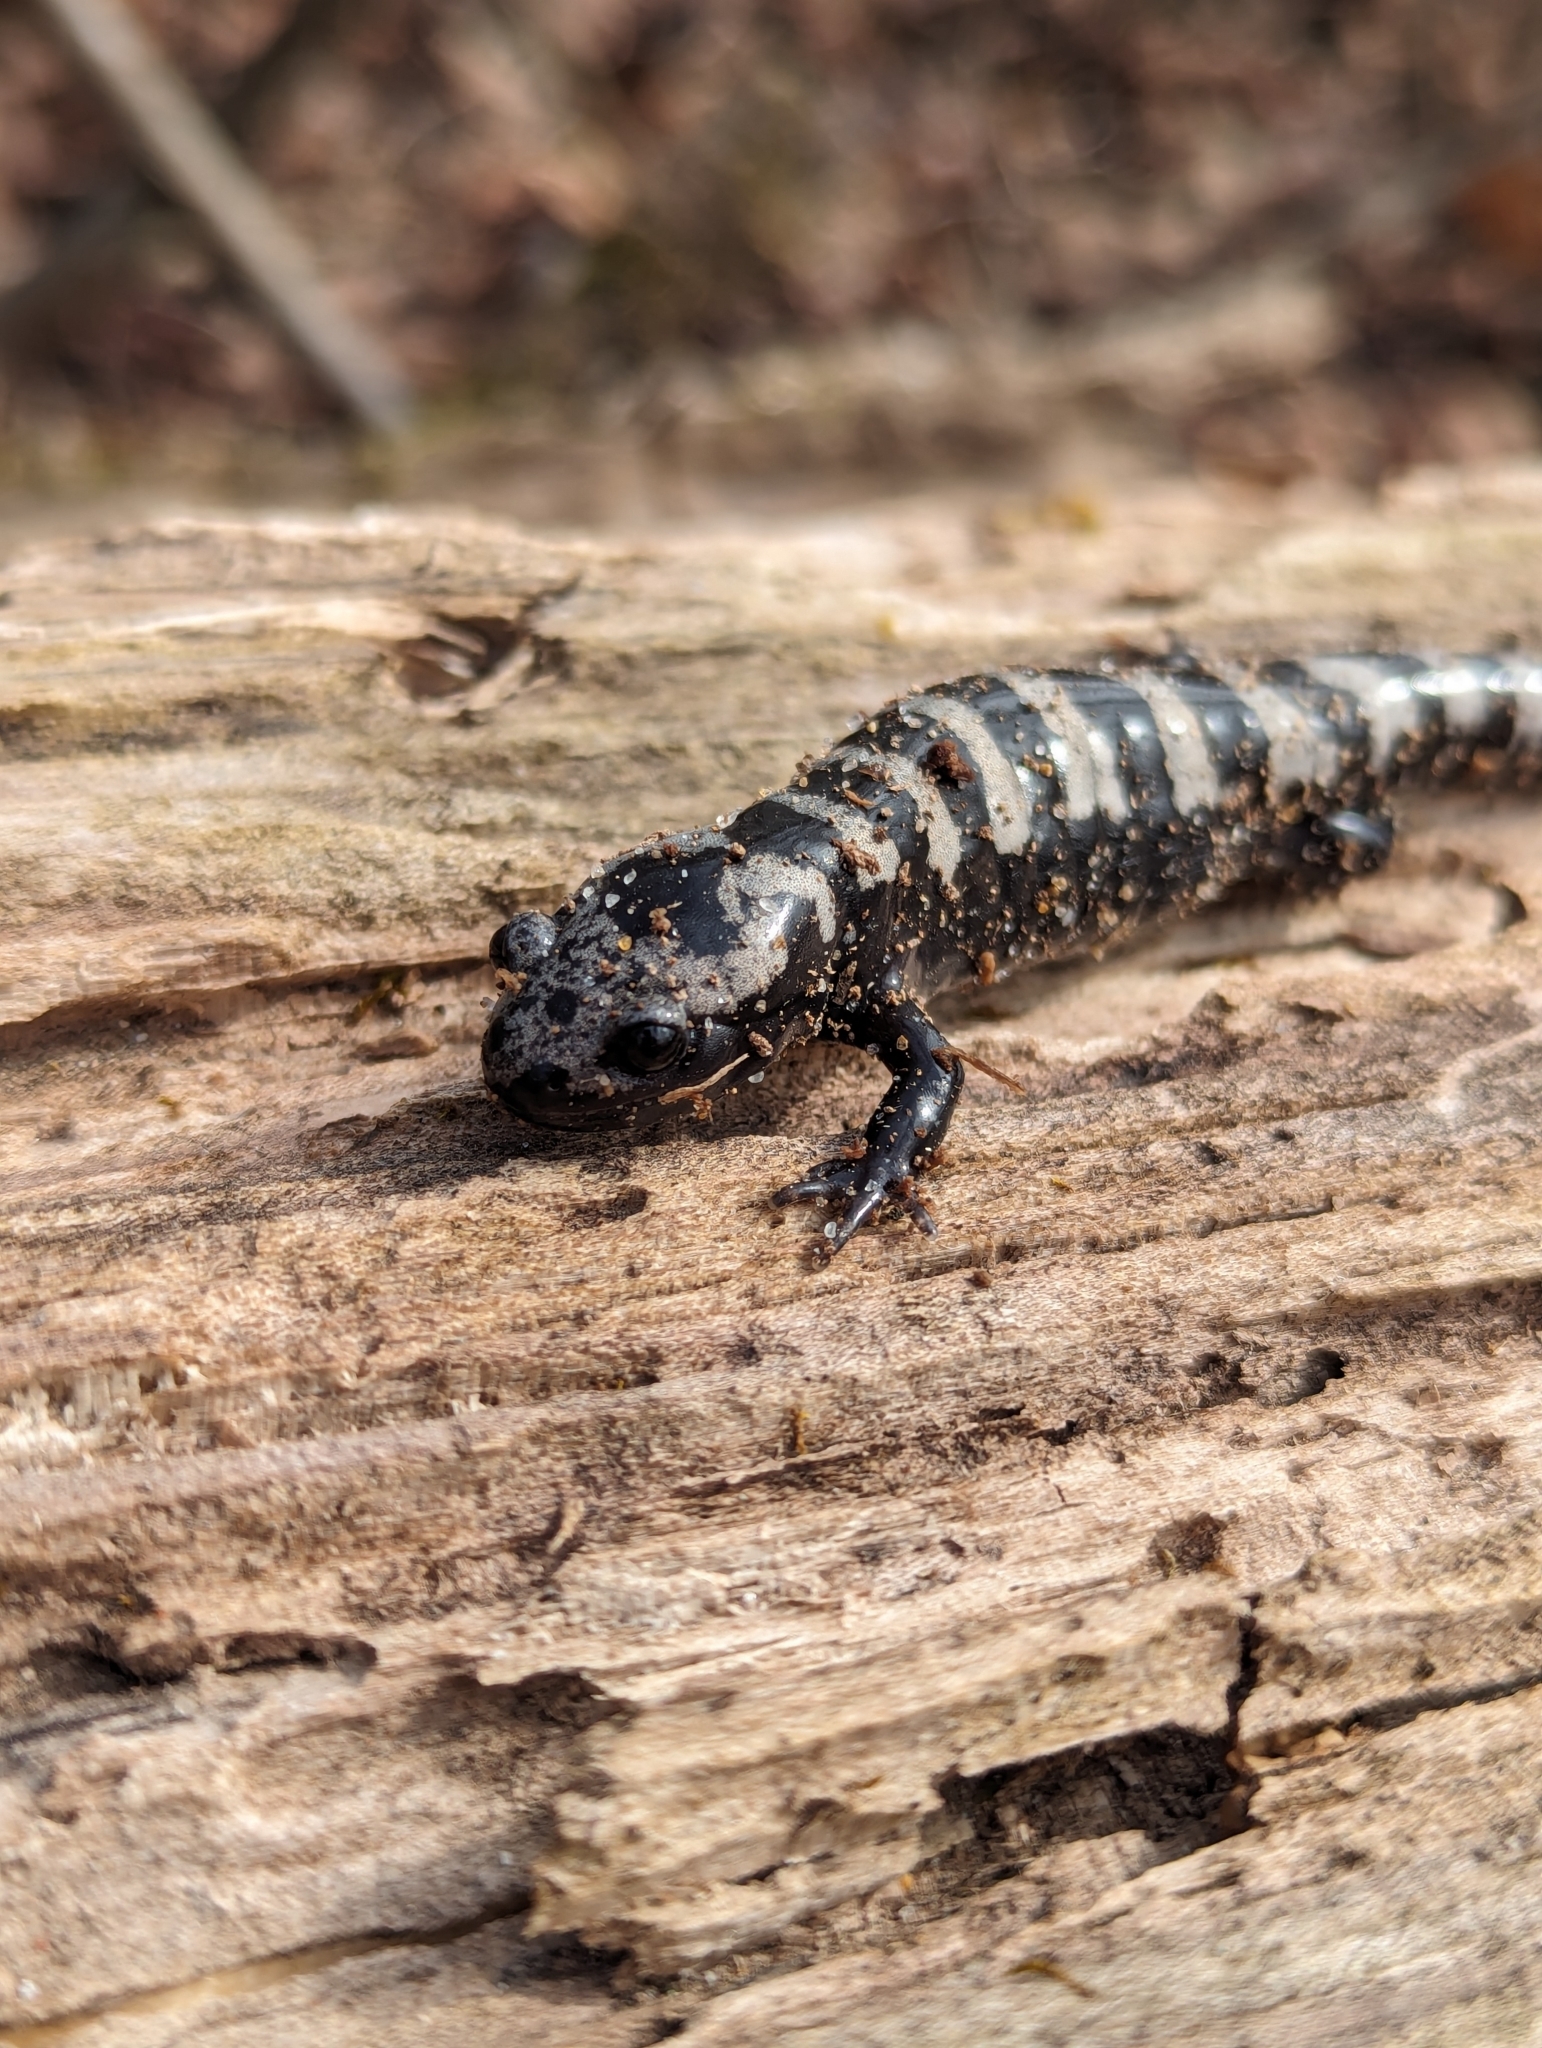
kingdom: Animalia
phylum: Chordata
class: Amphibia
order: Caudata
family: Ambystomatidae
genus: Ambystoma
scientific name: Ambystoma opacum
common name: Marbled salamander
